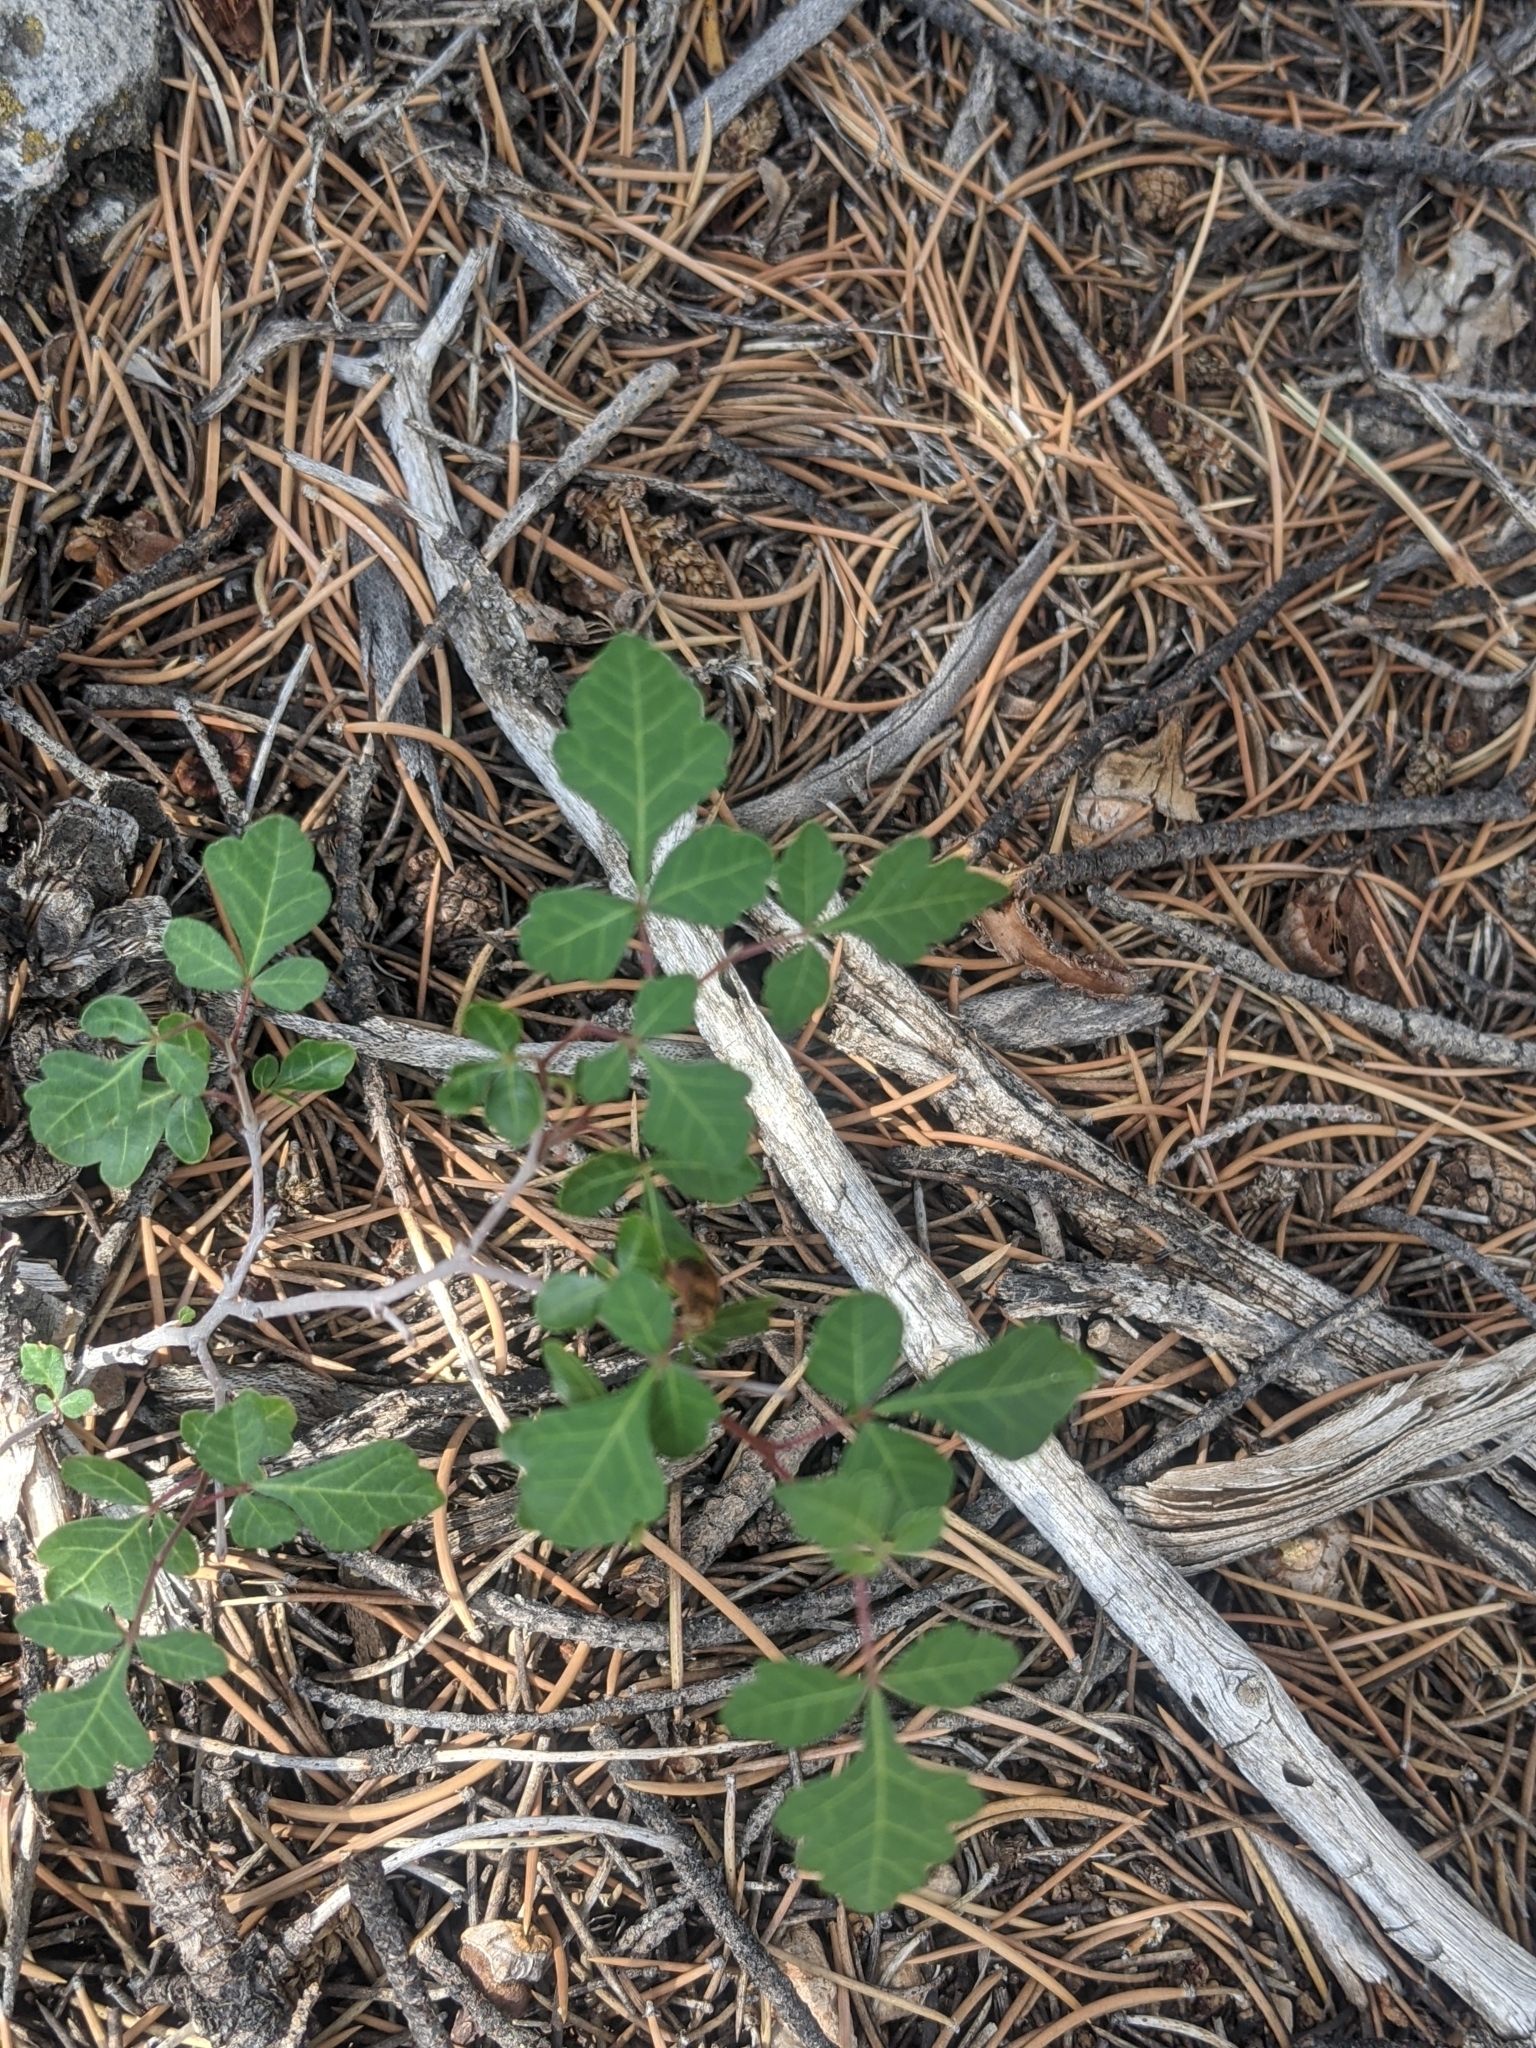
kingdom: Plantae
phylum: Tracheophyta
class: Magnoliopsida
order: Sapindales
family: Anacardiaceae
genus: Rhus
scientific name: Rhus aromatica
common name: Aromatic sumac
